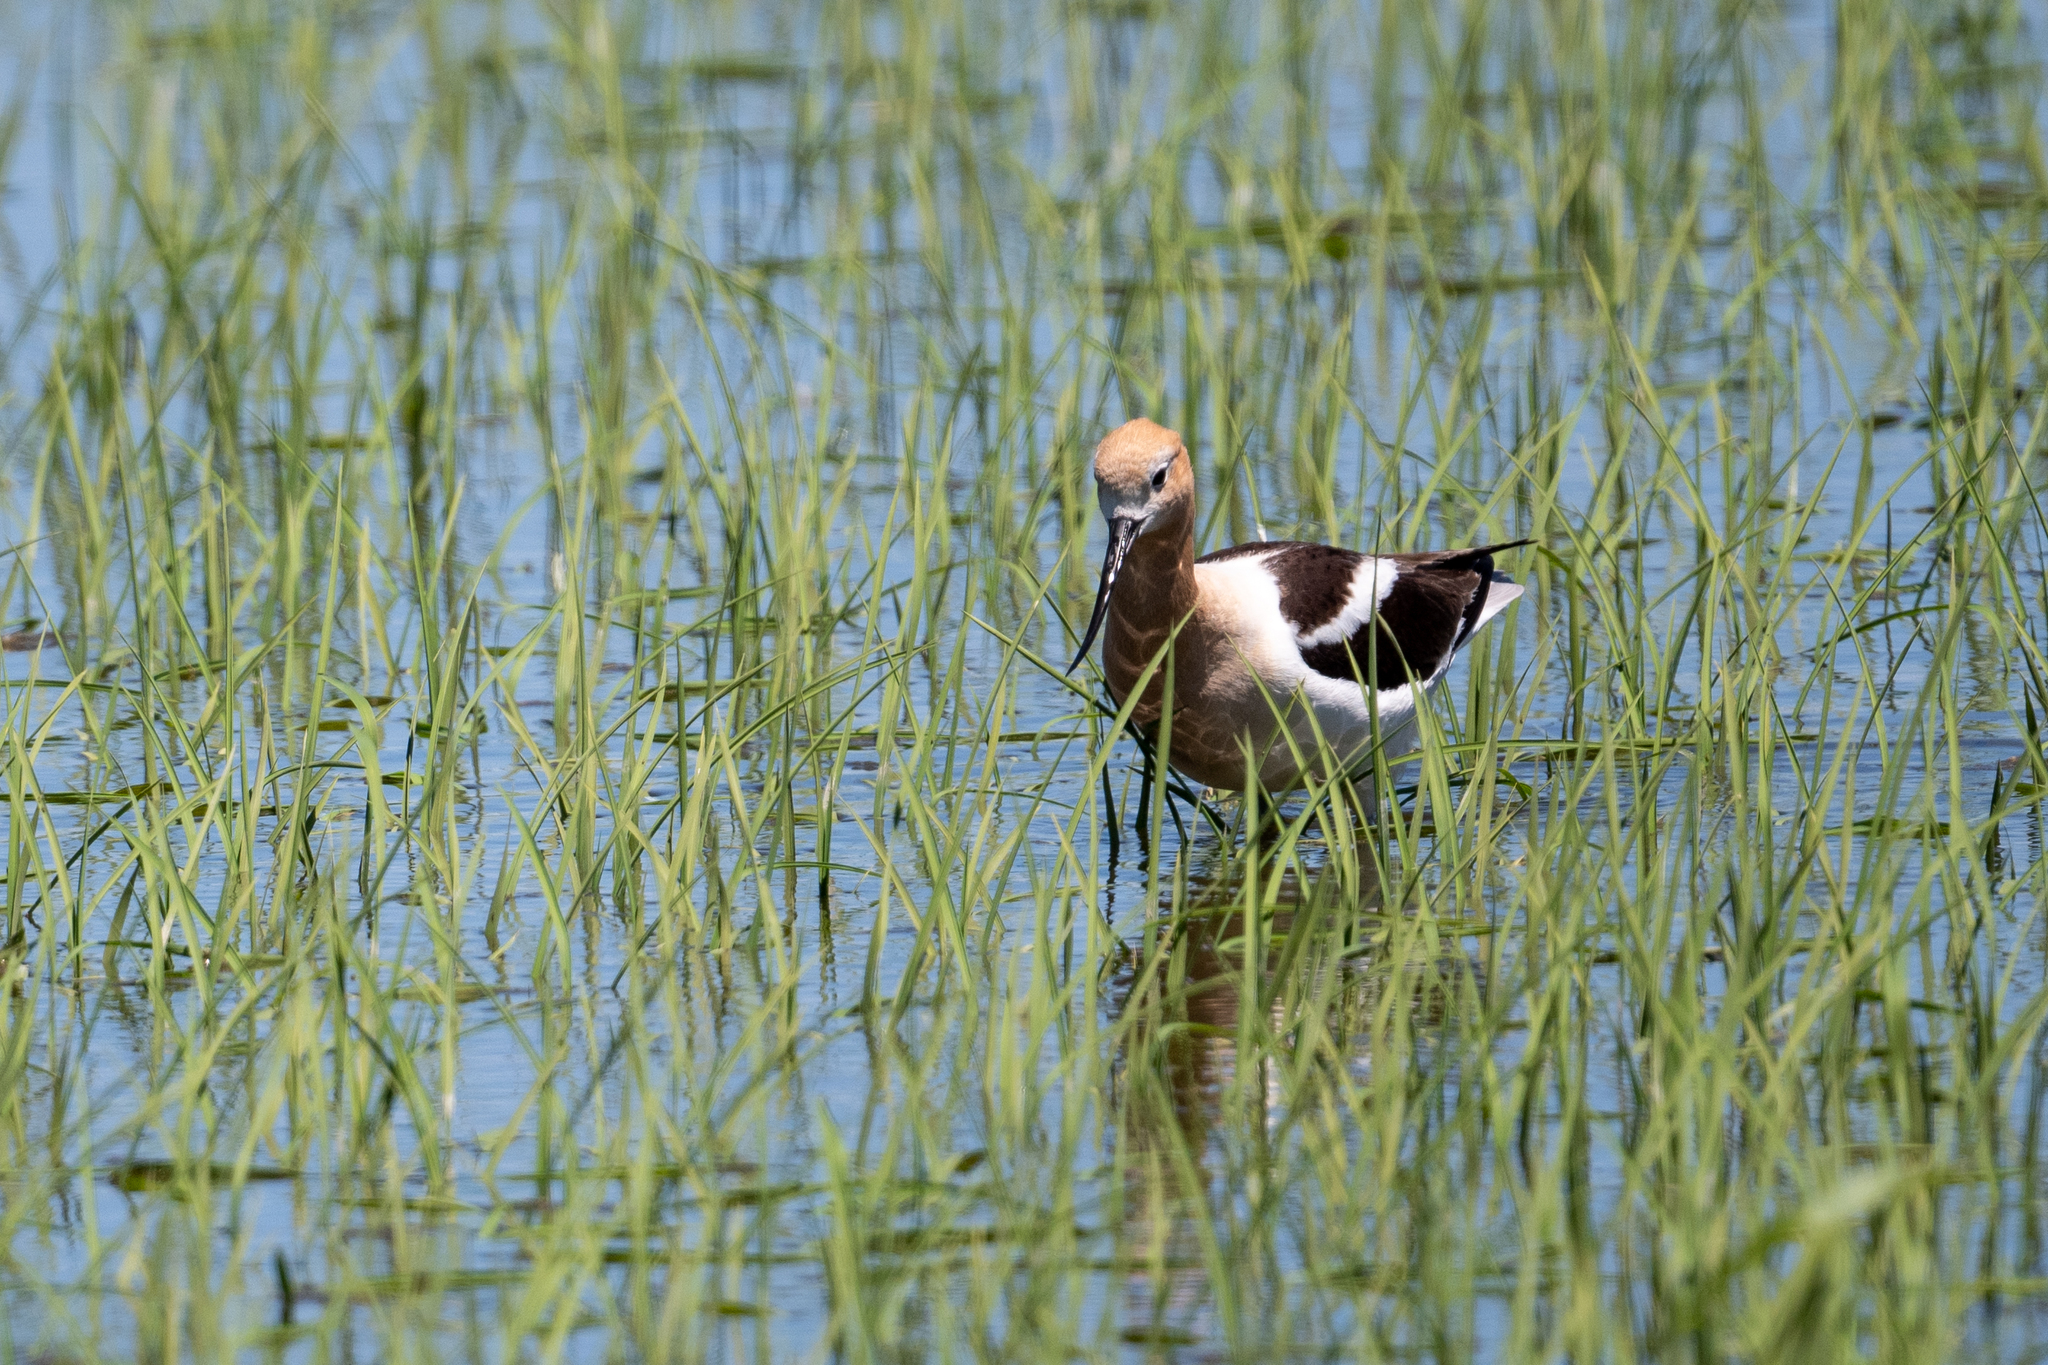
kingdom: Animalia
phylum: Chordata
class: Aves
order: Charadriiformes
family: Recurvirostridae
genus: Recurvirostra
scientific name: Recurvirostra americana
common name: American avocet
